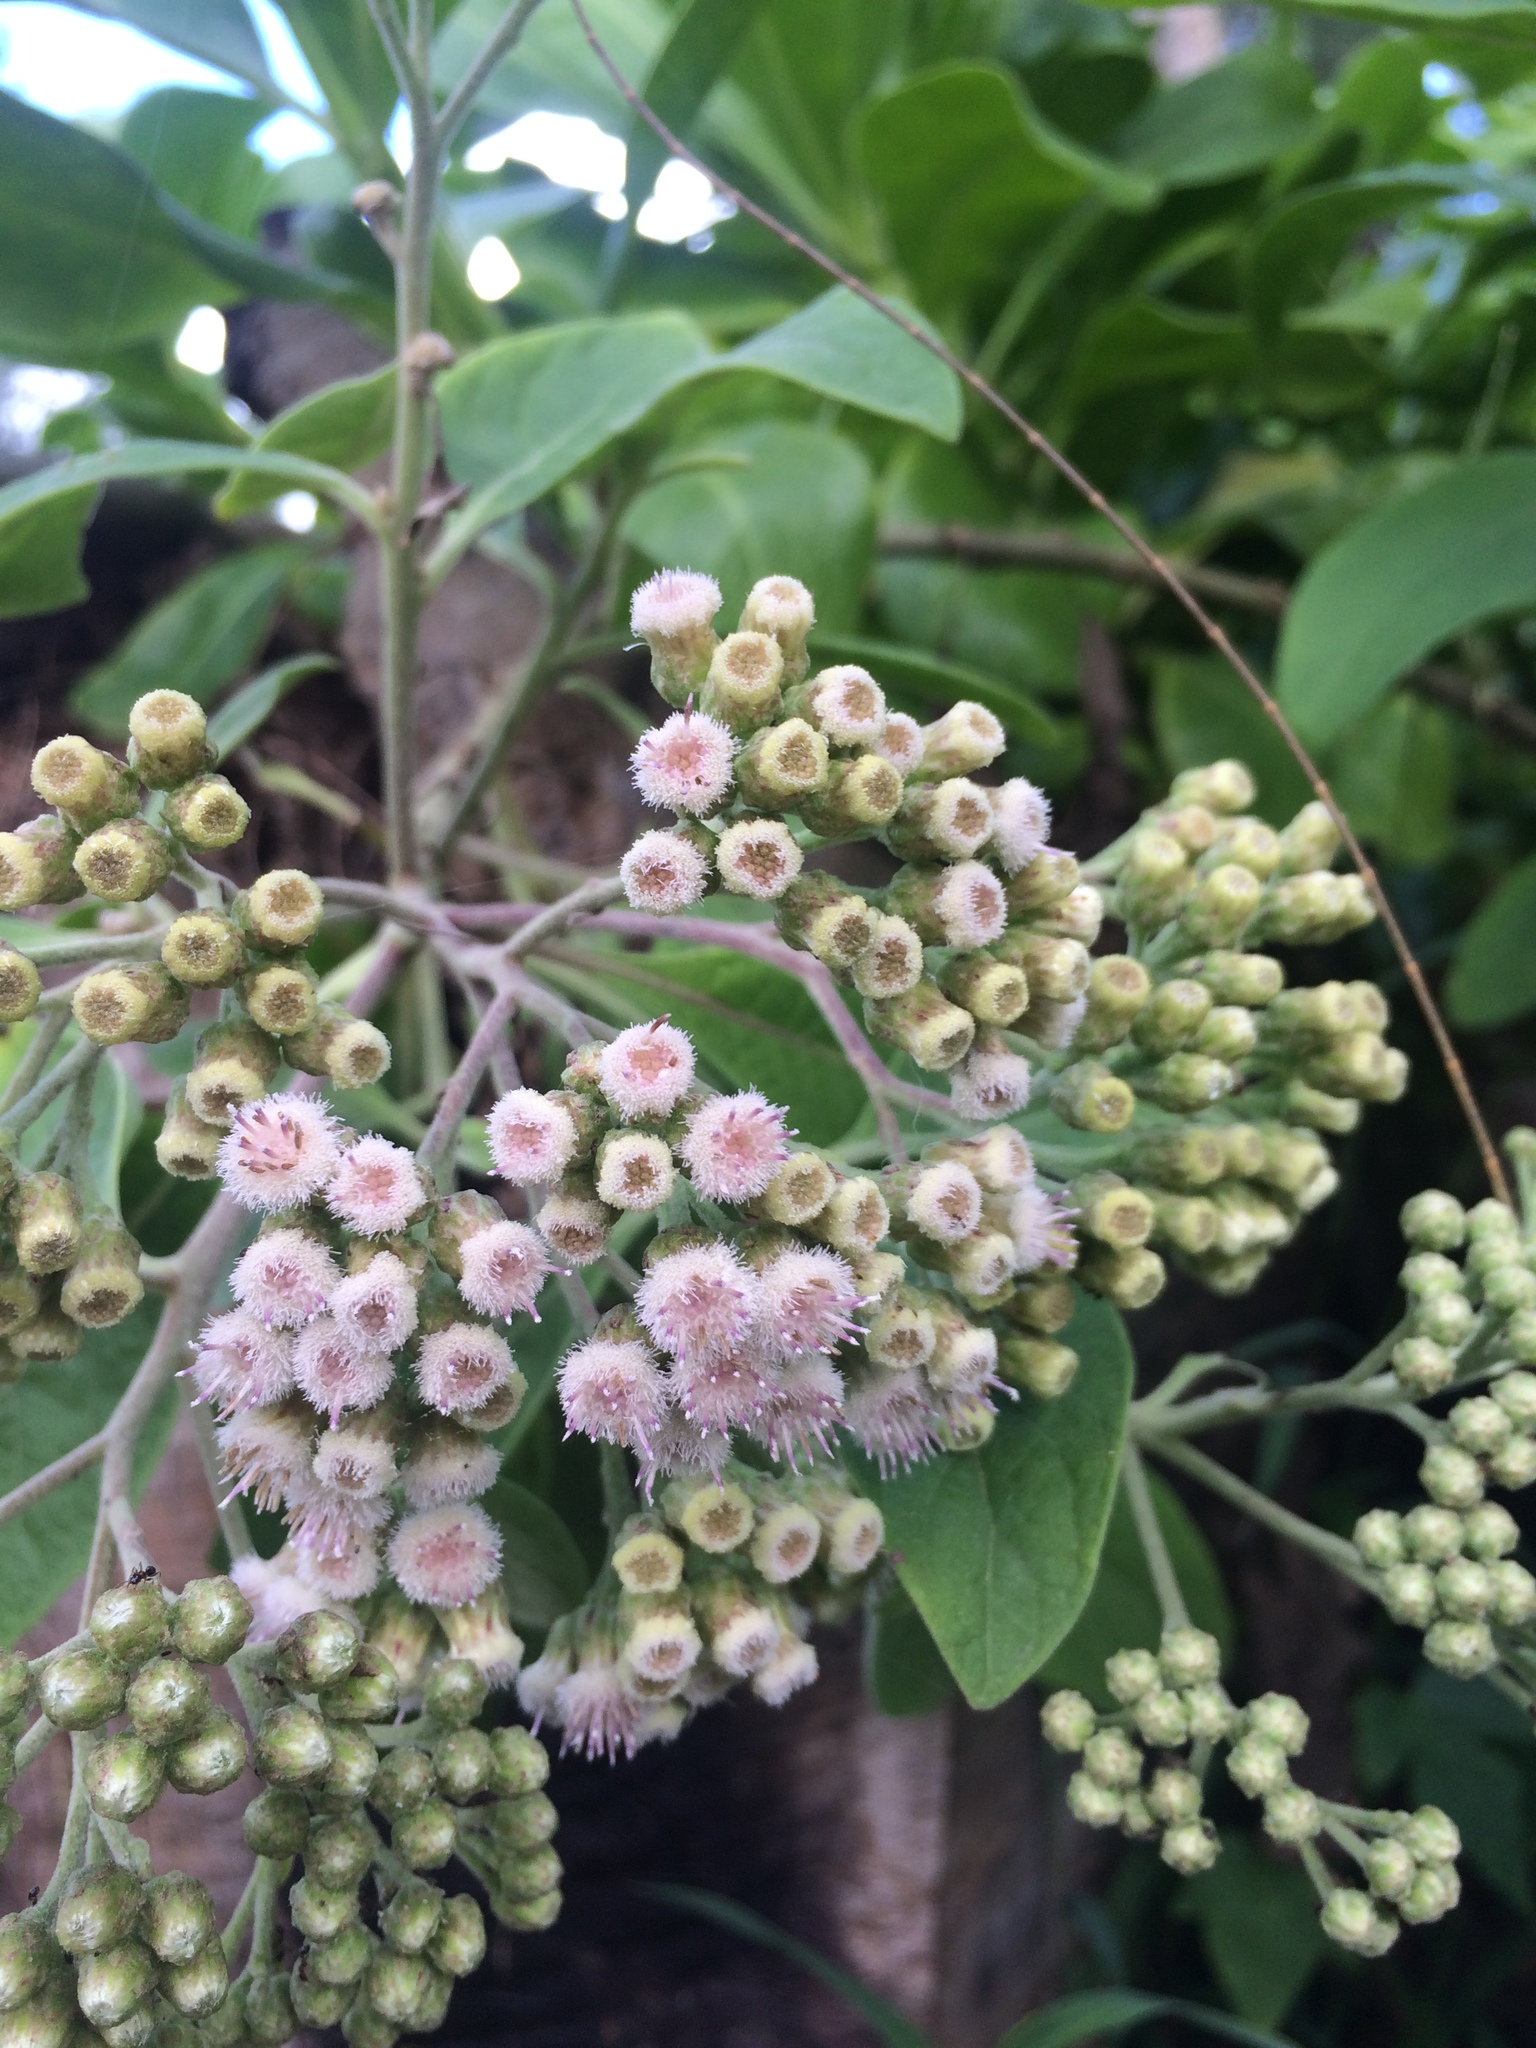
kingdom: Plantae
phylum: Tracheophyta
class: Magnoliopsida
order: Asterales
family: Asteraceae
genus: Pluchea
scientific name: Pluchea carolinensis
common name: Marsh fleabane
